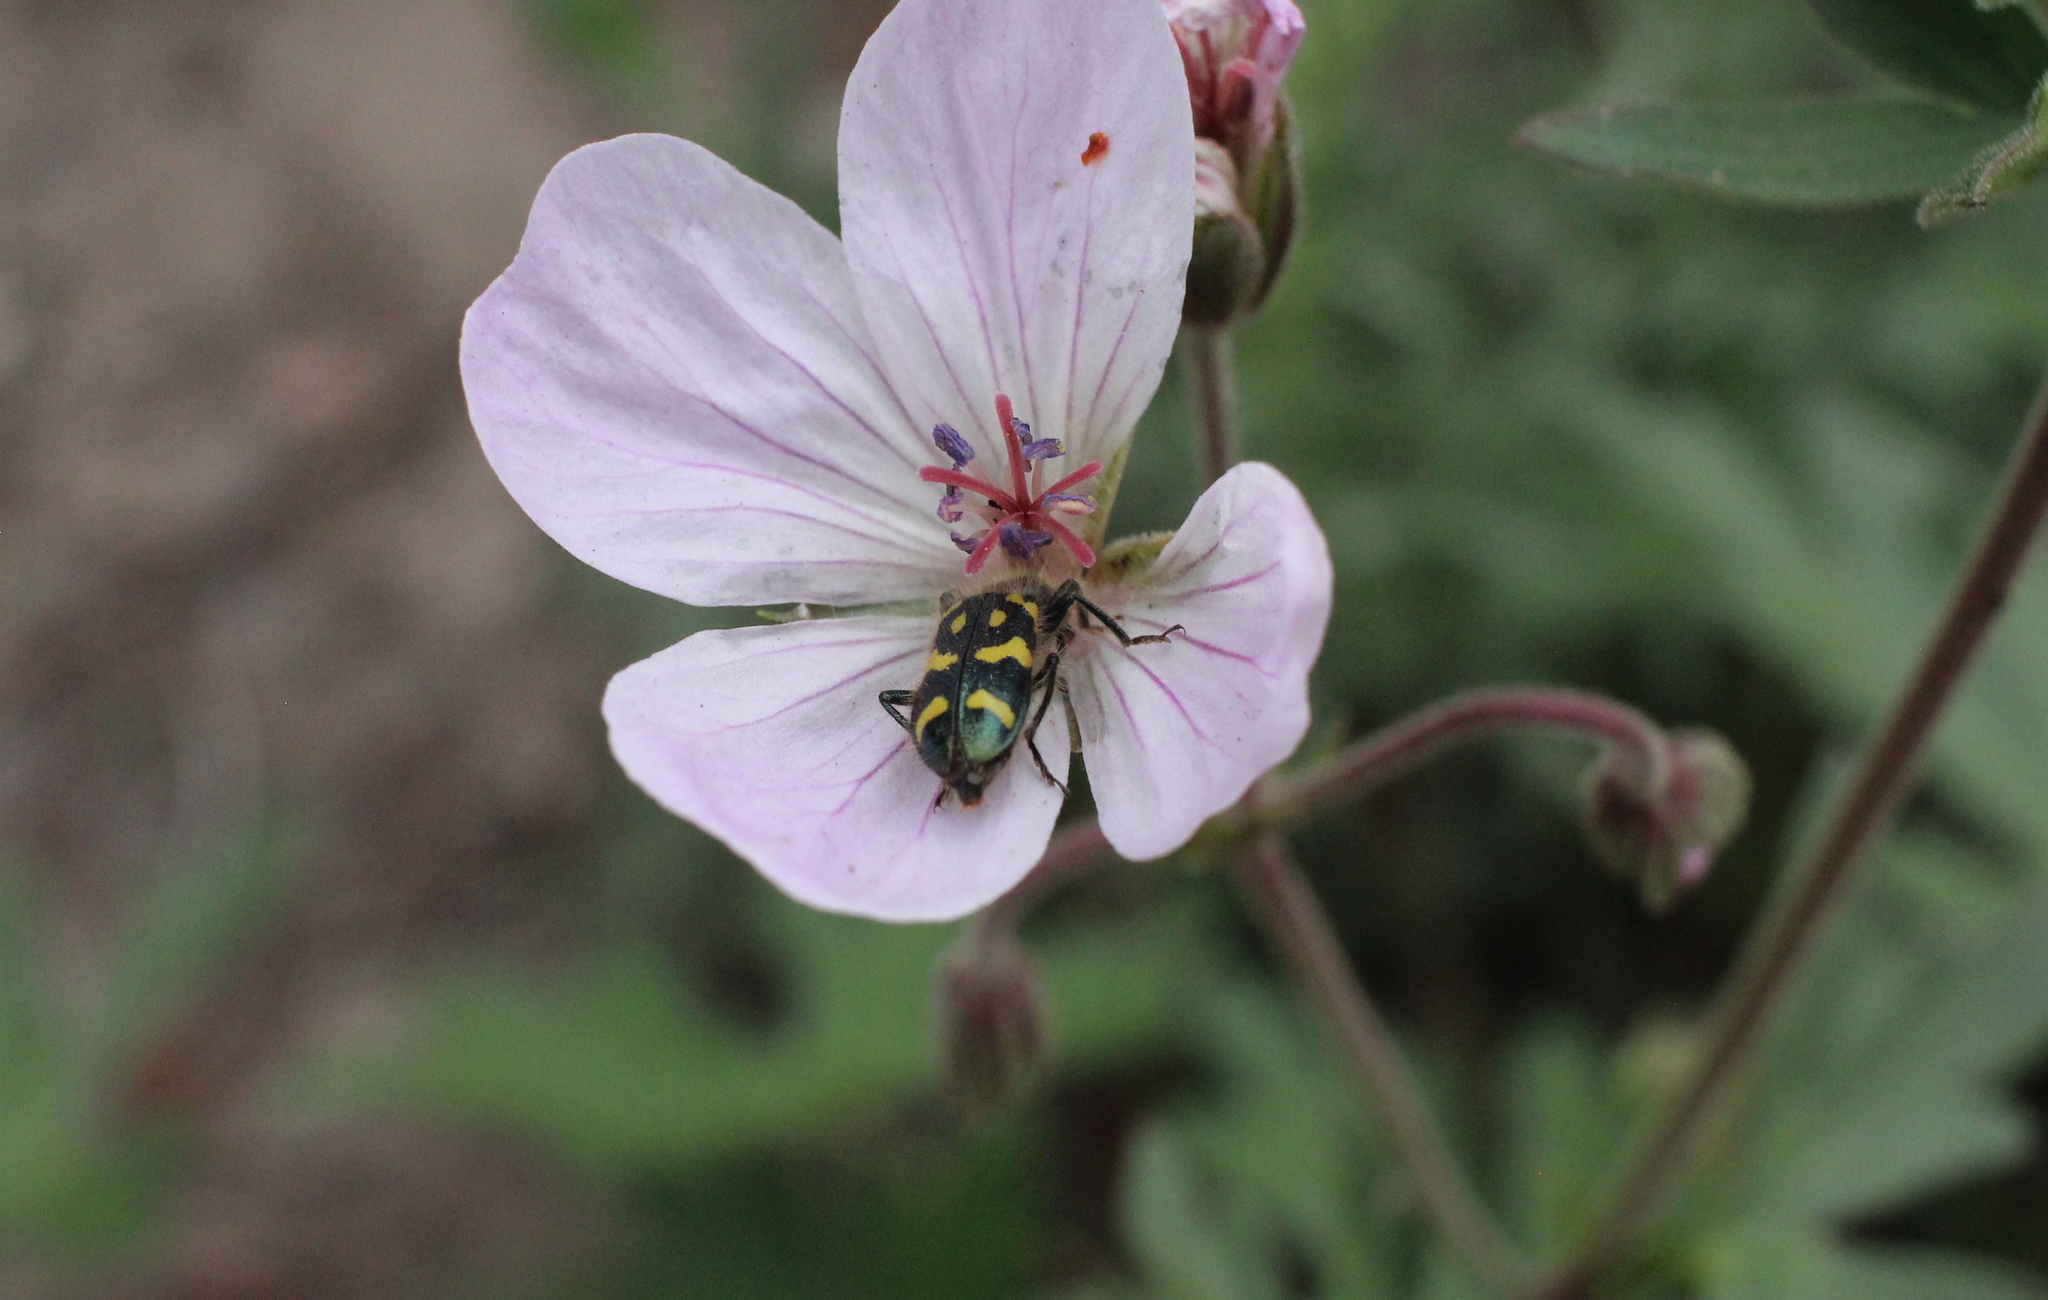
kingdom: Animalia
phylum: Arthropoda
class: Insecta
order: Coleoptera
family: Cleridae
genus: Trichodes
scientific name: Trichodes ornatus
